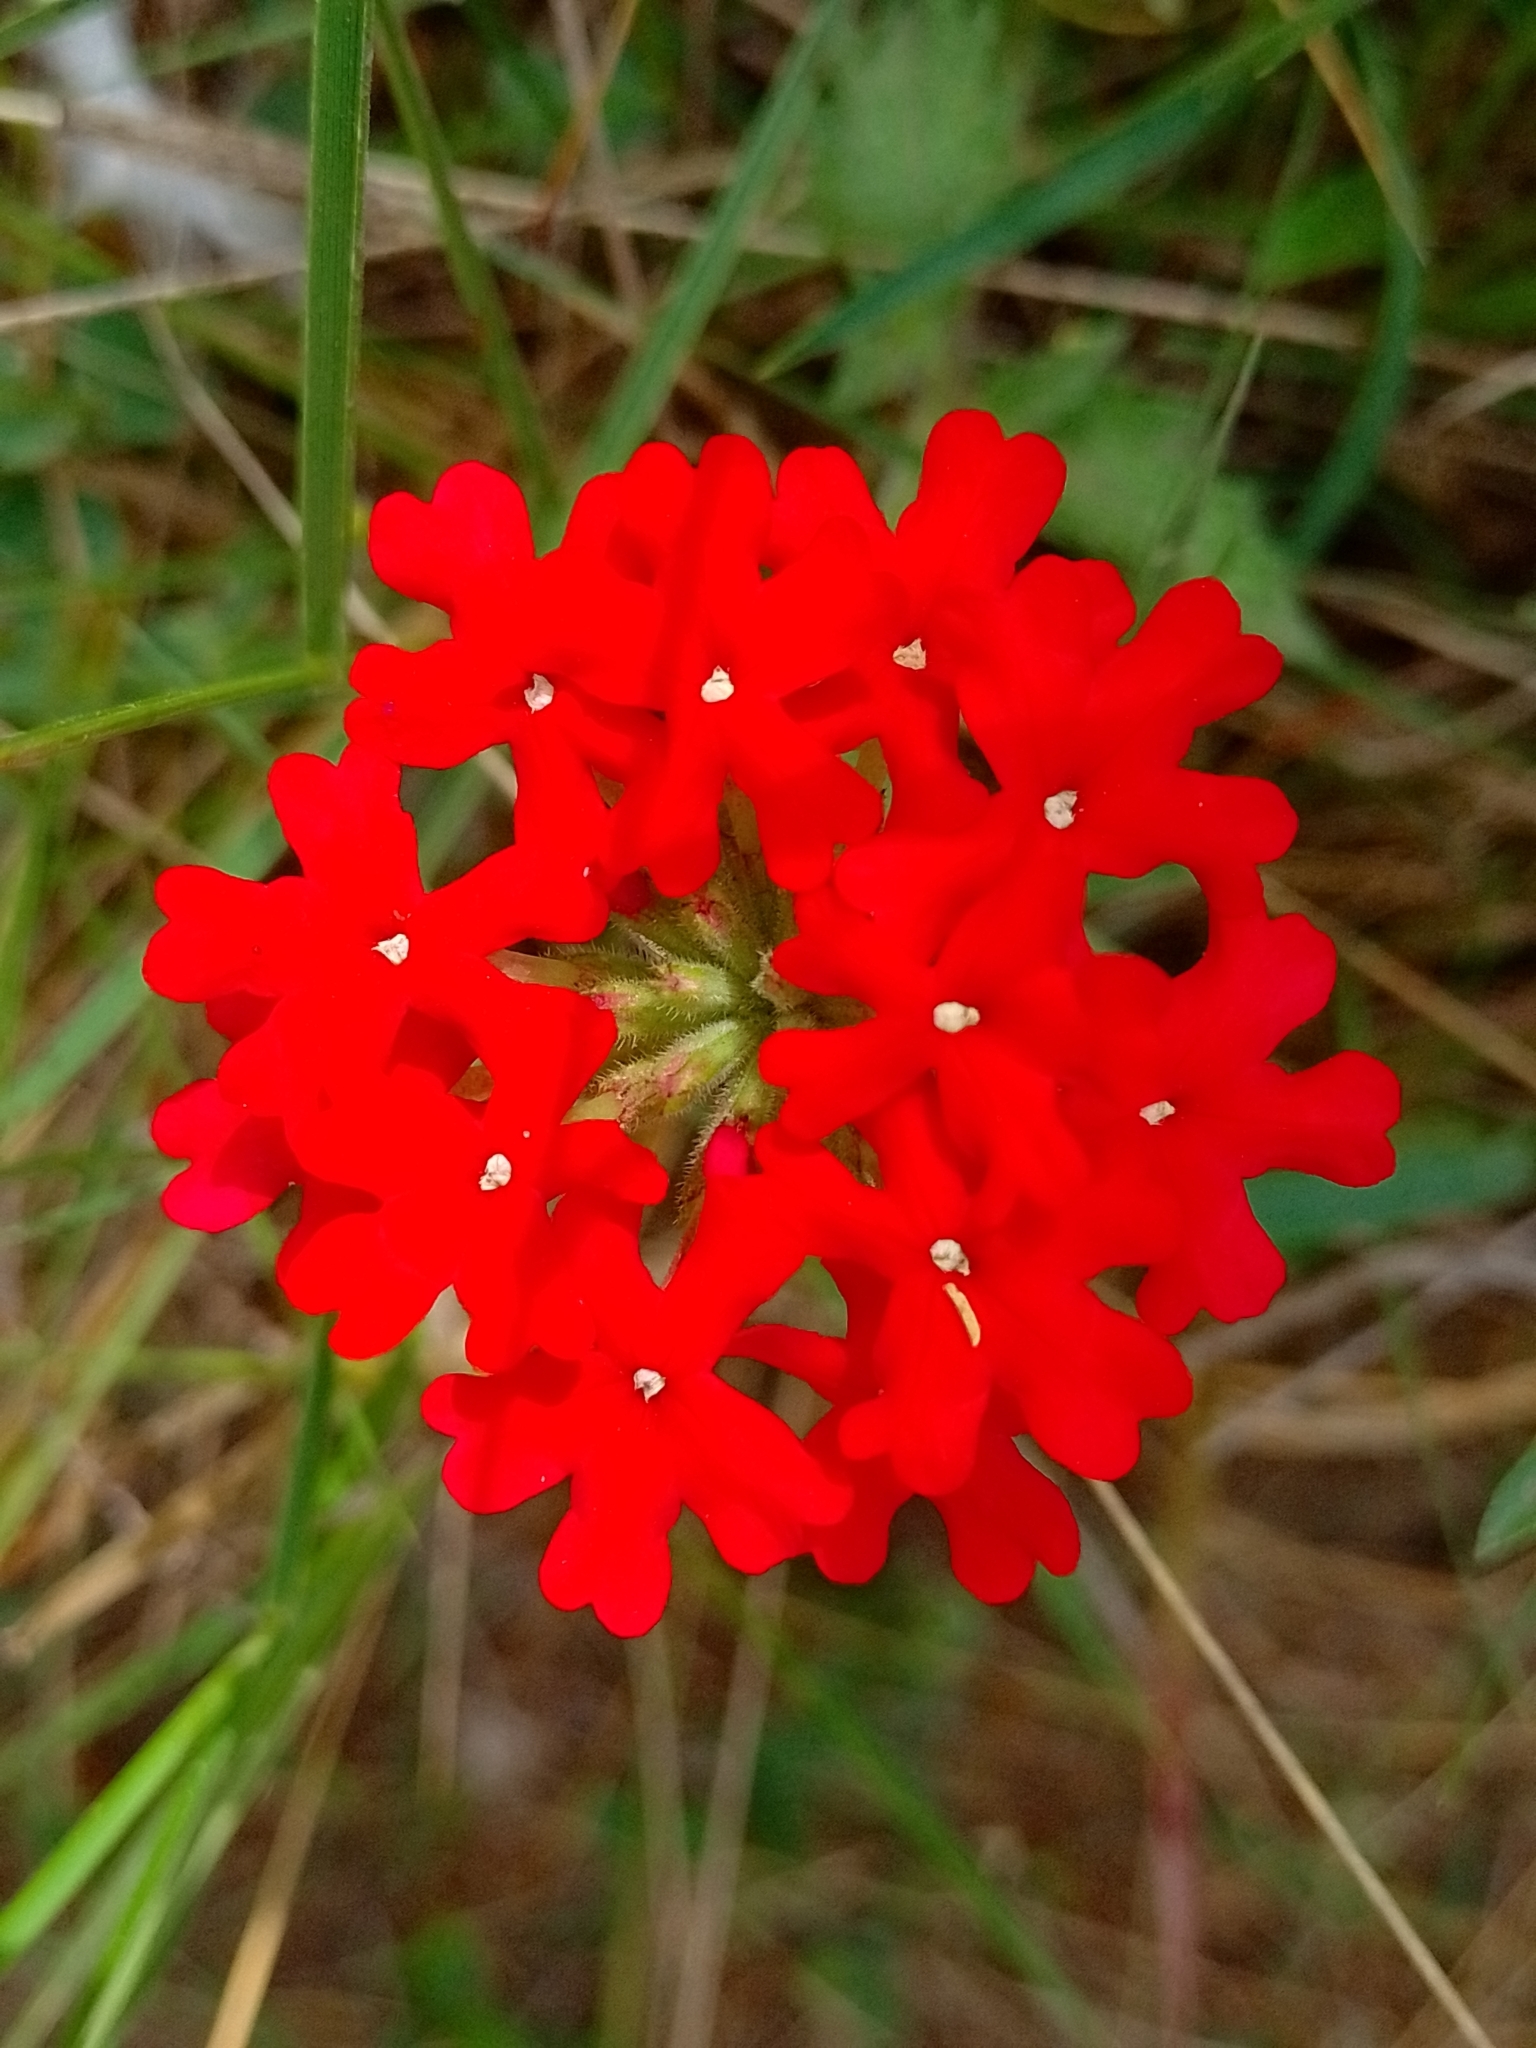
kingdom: Plantae
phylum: Tracheophyta
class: Magnoliopsida
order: Lamiales
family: Verbenaceae
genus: Verbena
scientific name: Verbena peruviana
